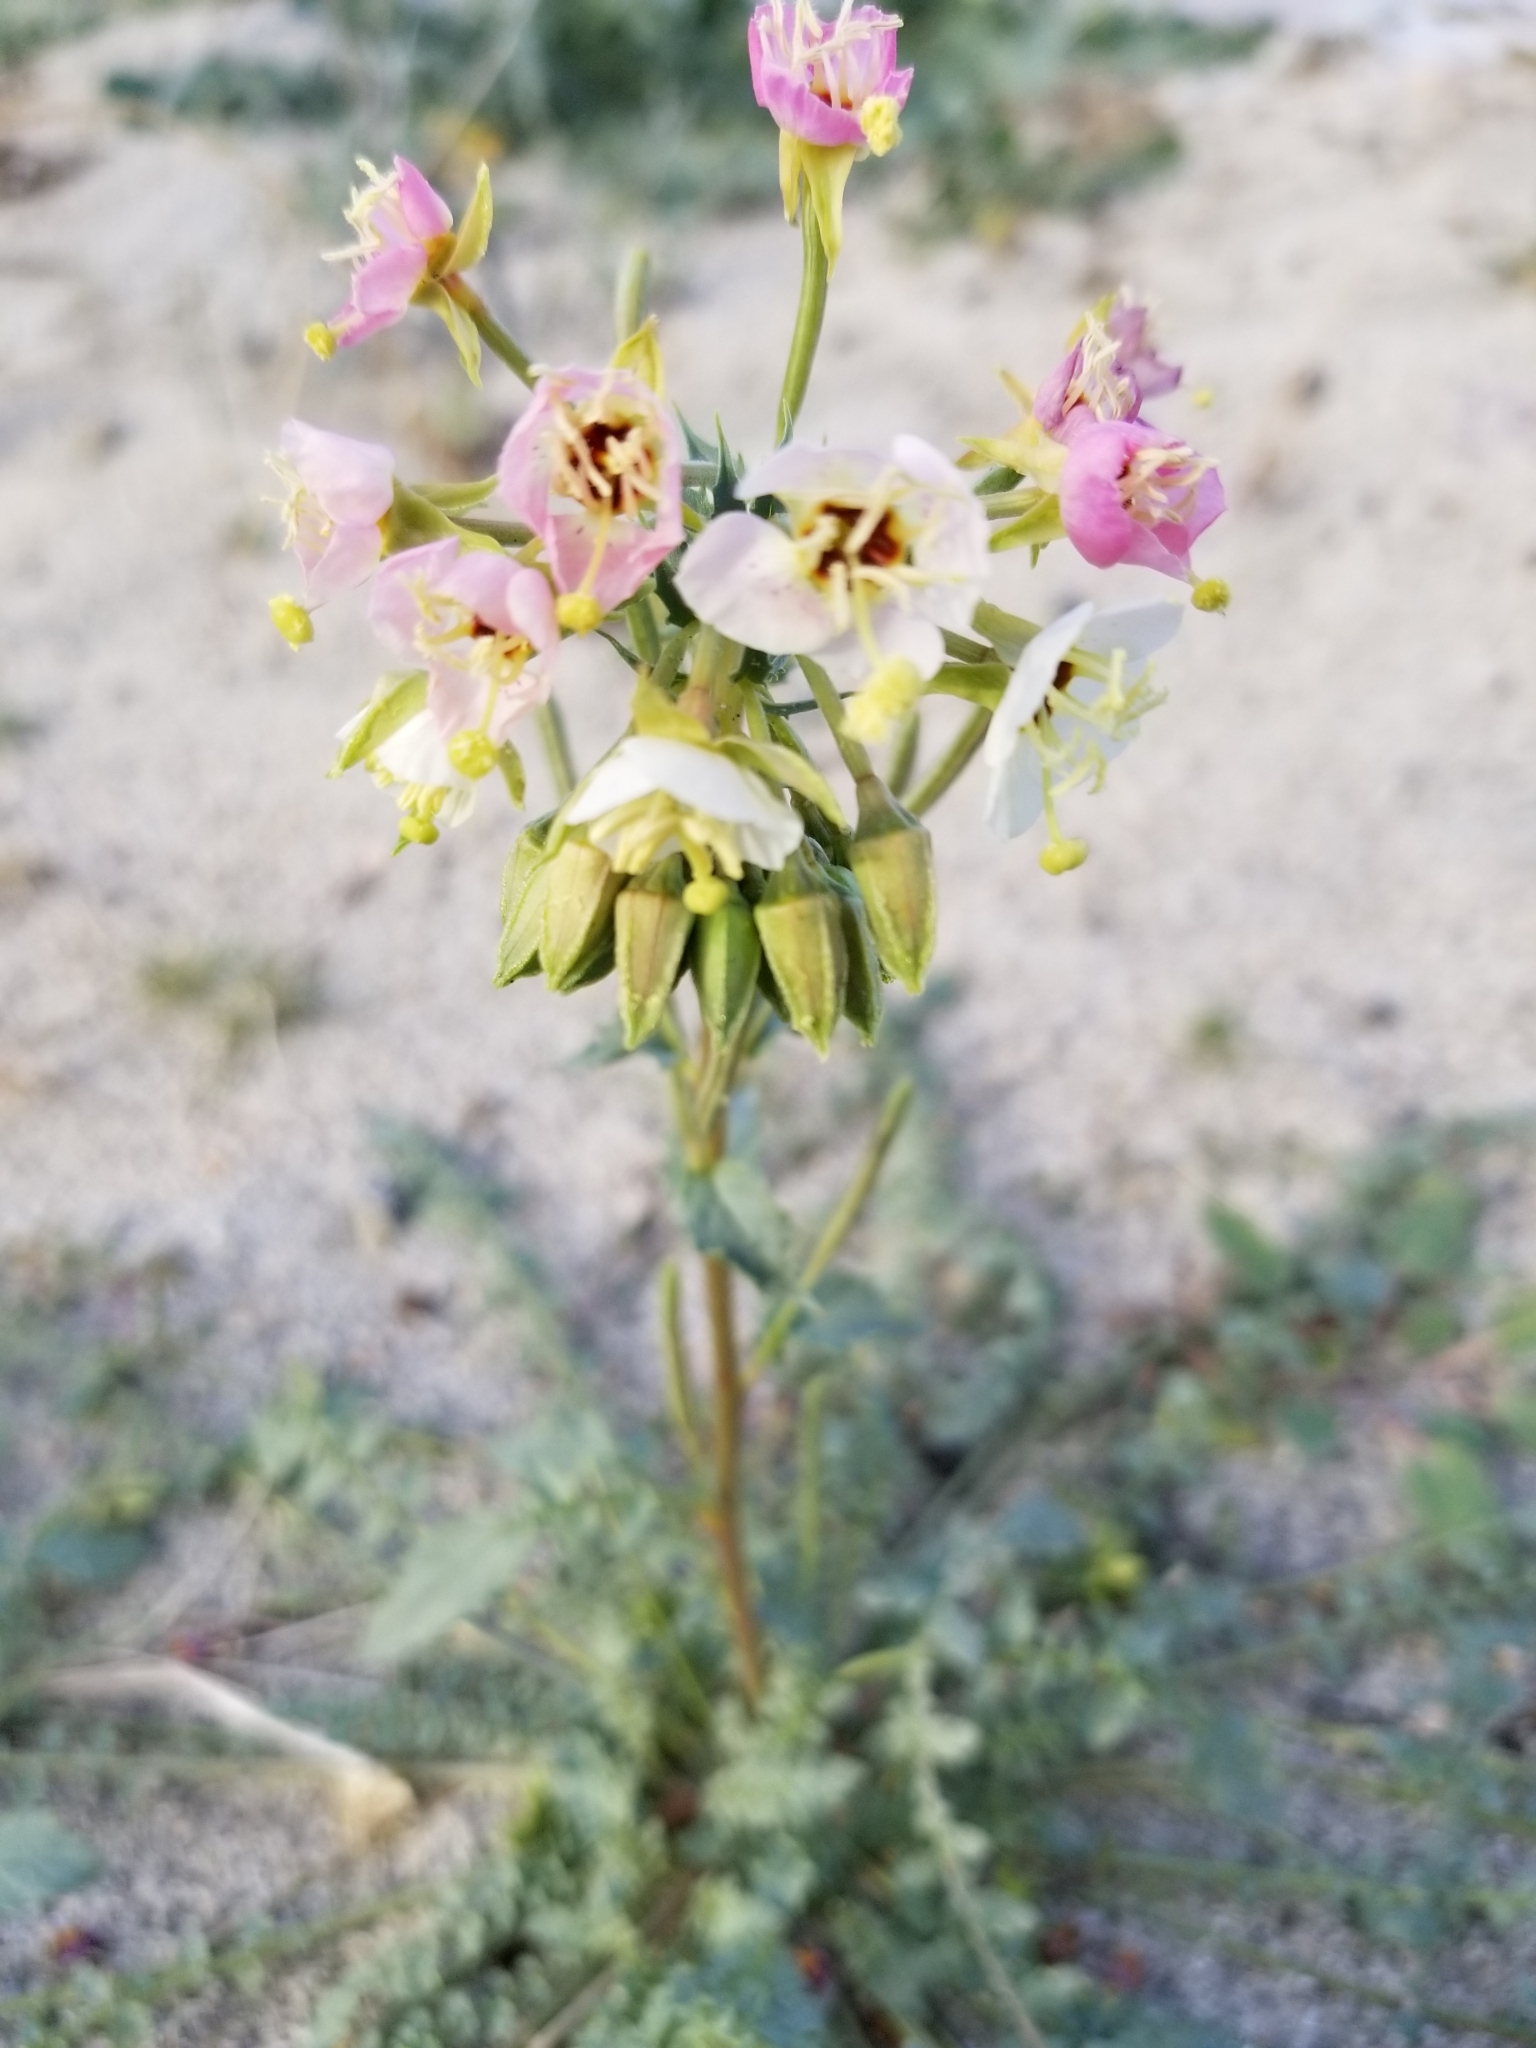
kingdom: Plantae
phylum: Tracheophyta
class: Magnoliopsida
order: Myrtales
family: Onagraceae
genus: Chylismia
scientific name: Chylismia claviformis
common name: Browneyes
